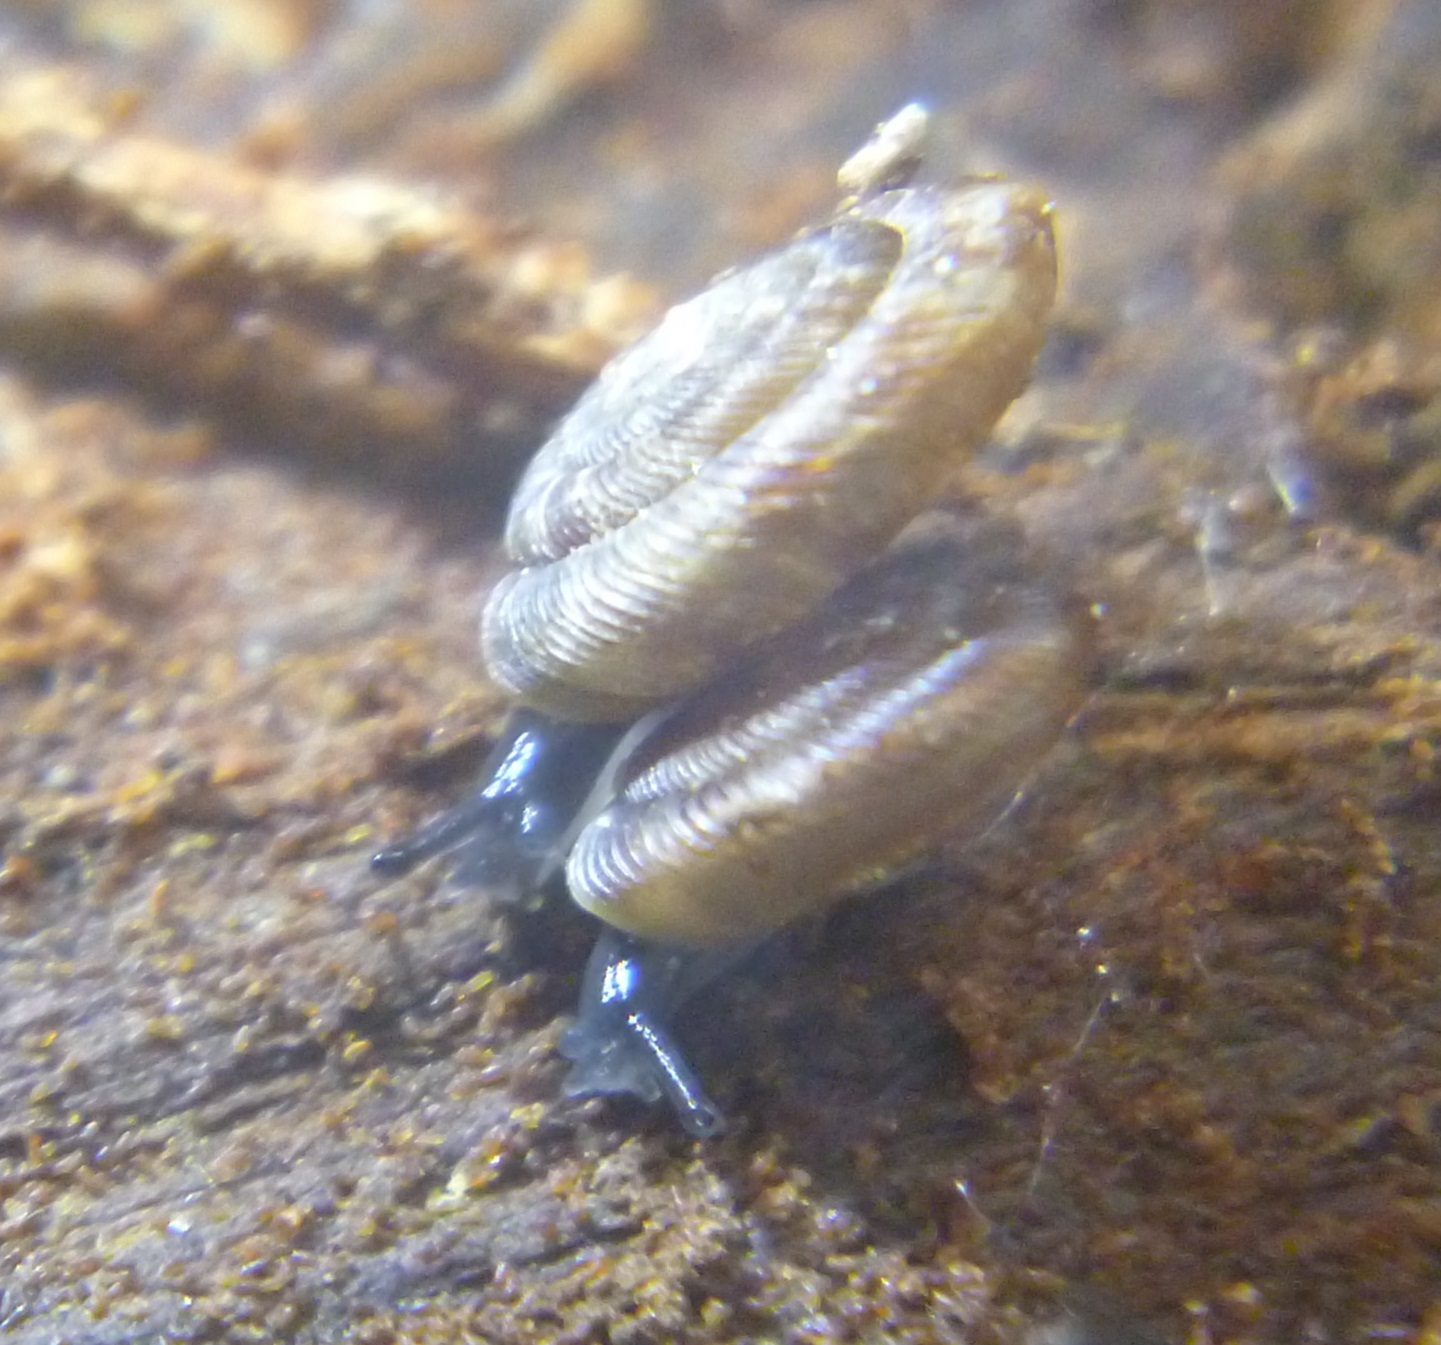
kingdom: Animalia
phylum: Mollusca
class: Gastropoda
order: Stylommatophora
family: Discidae
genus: Discus
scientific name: Discus rotundatus
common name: Rounded snail
